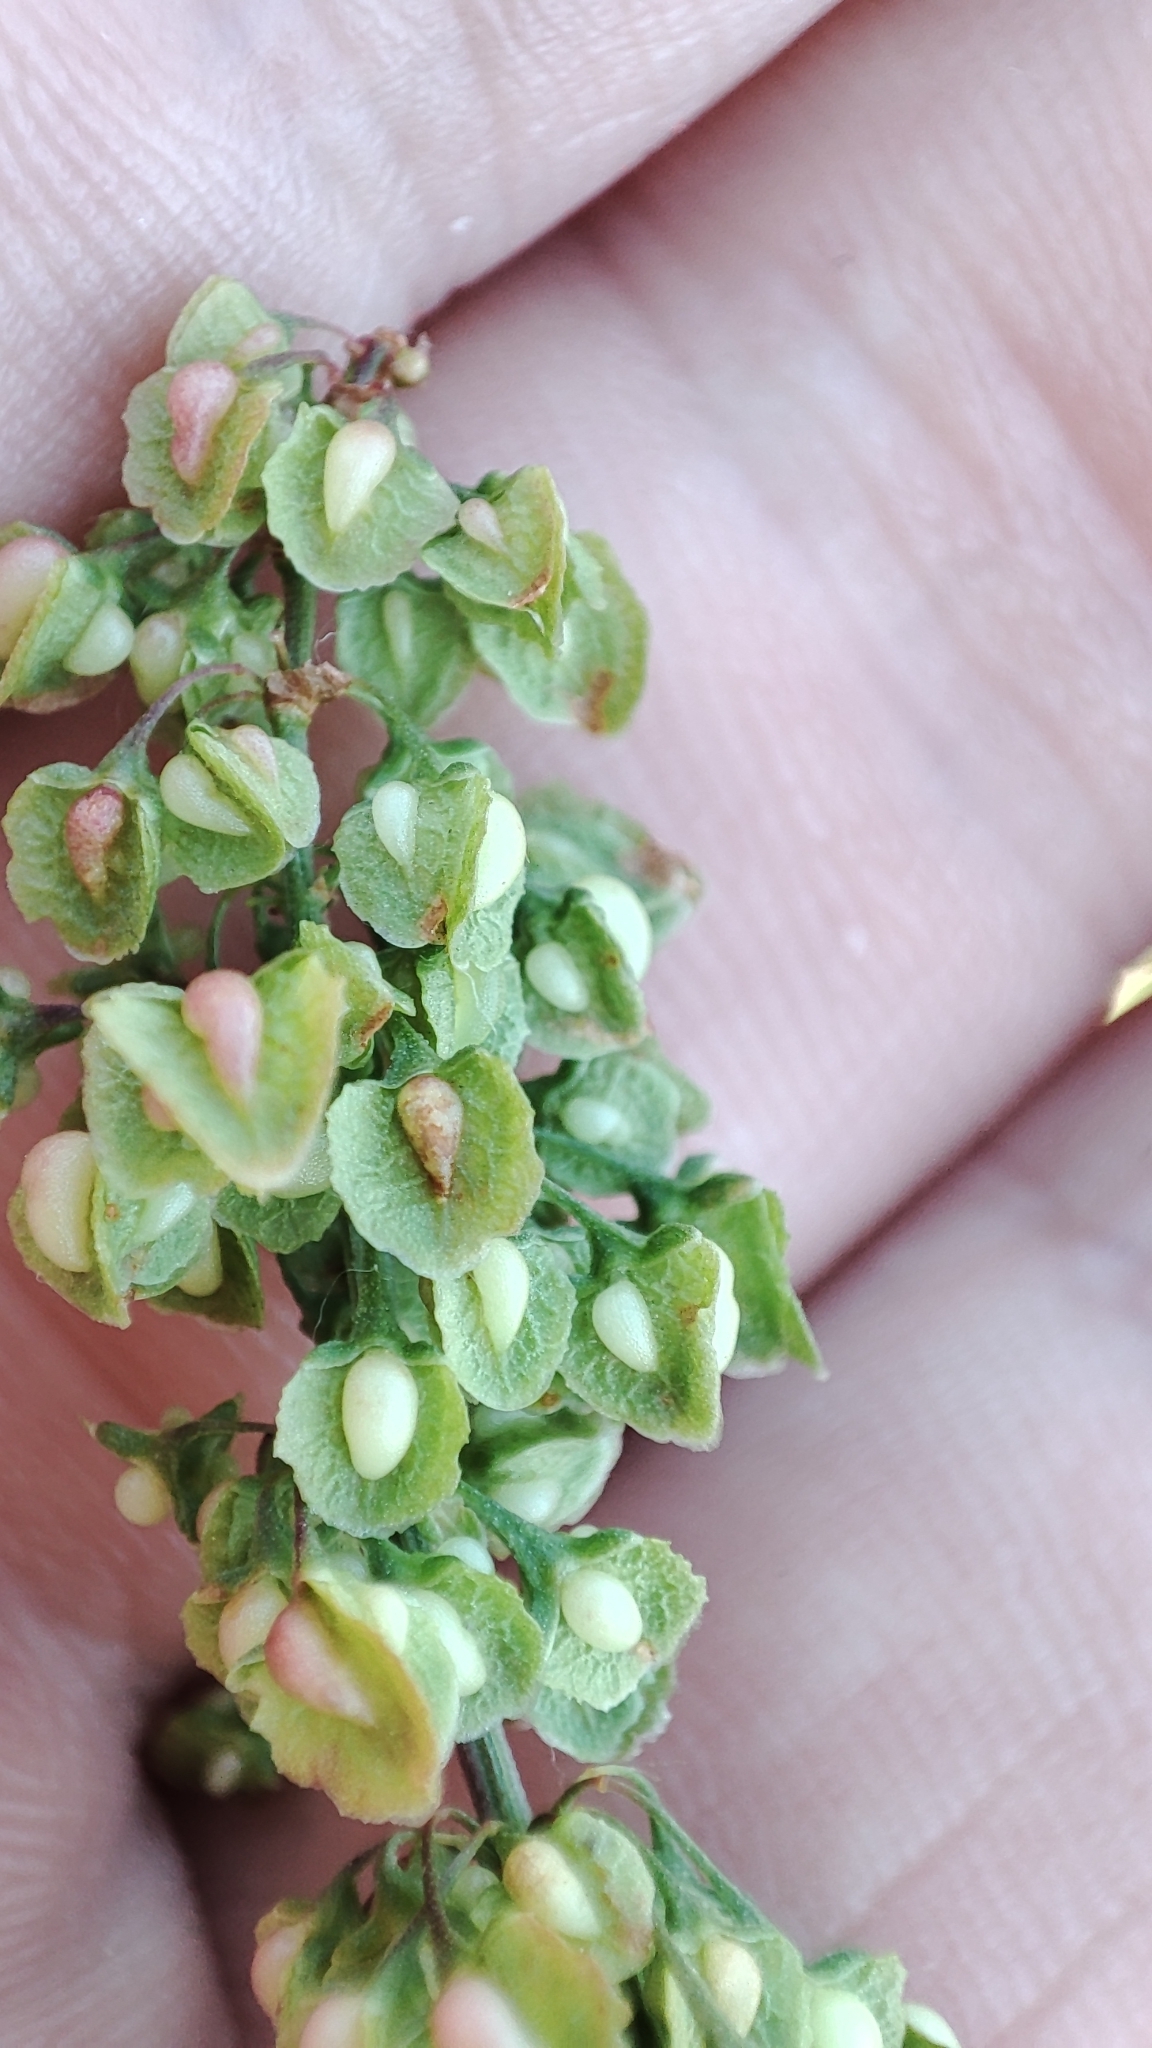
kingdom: Plantae
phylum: Tracheophyta
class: Magnoliopsida
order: Caryophyllales
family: Polygonaceae
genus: Rumex
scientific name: Rumex crispus
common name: Curled dock
